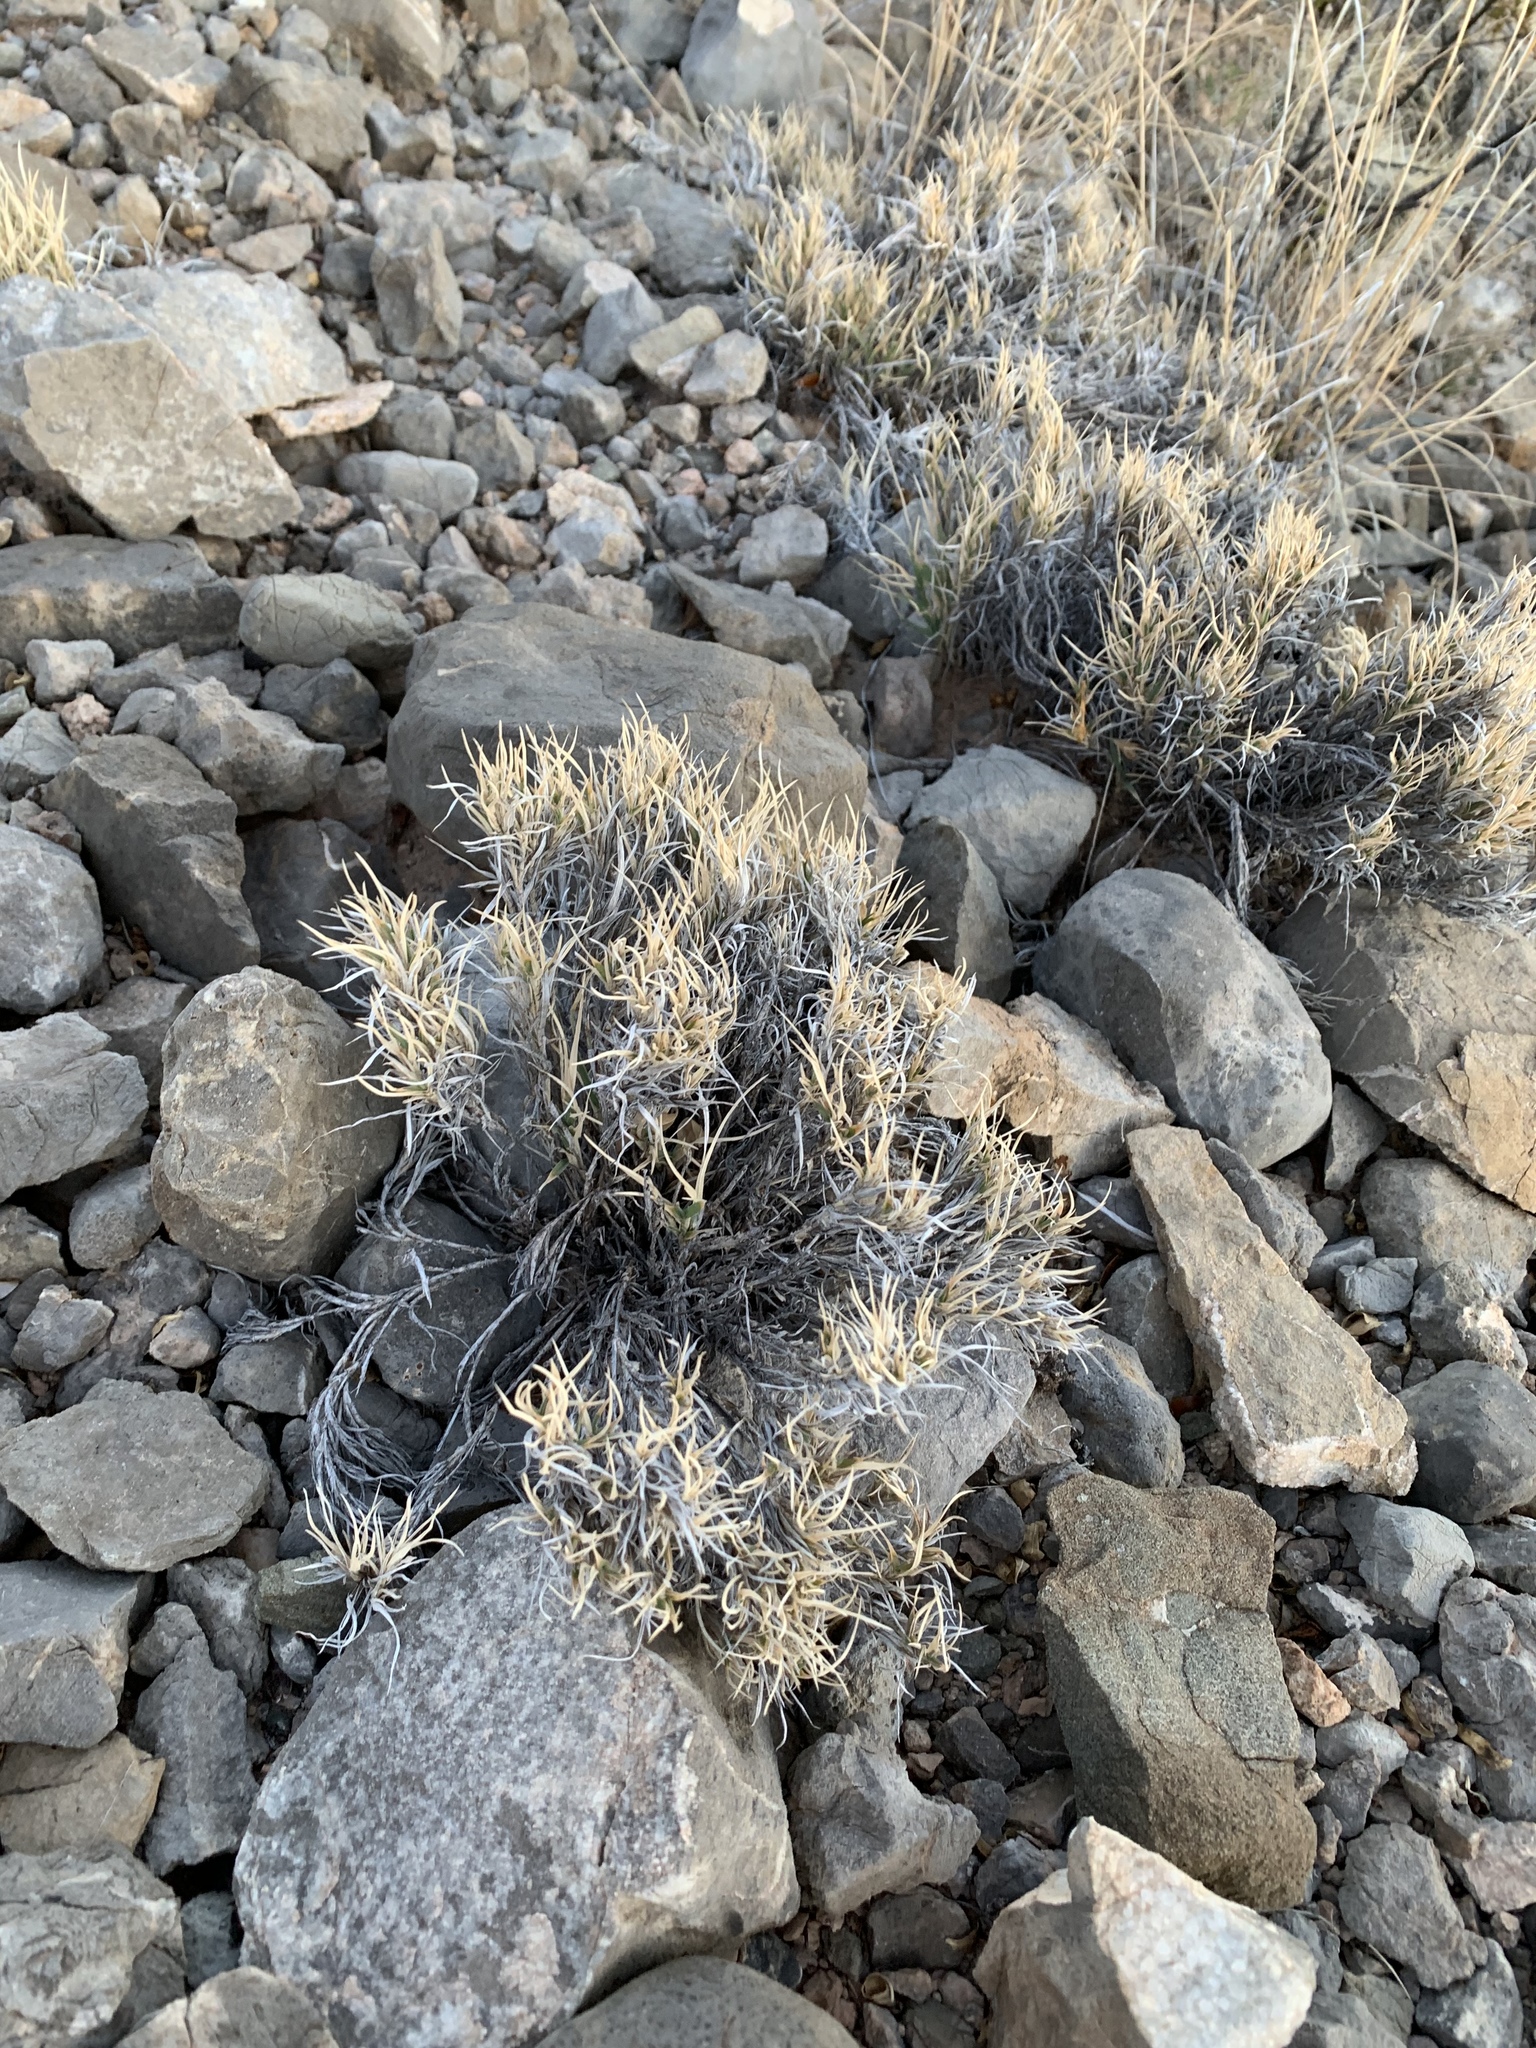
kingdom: Plantae
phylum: Tracheophyta
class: Liliopsida
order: Poales
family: Poaceae
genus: Dasyochloa
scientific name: Dasyochloa pulchella
